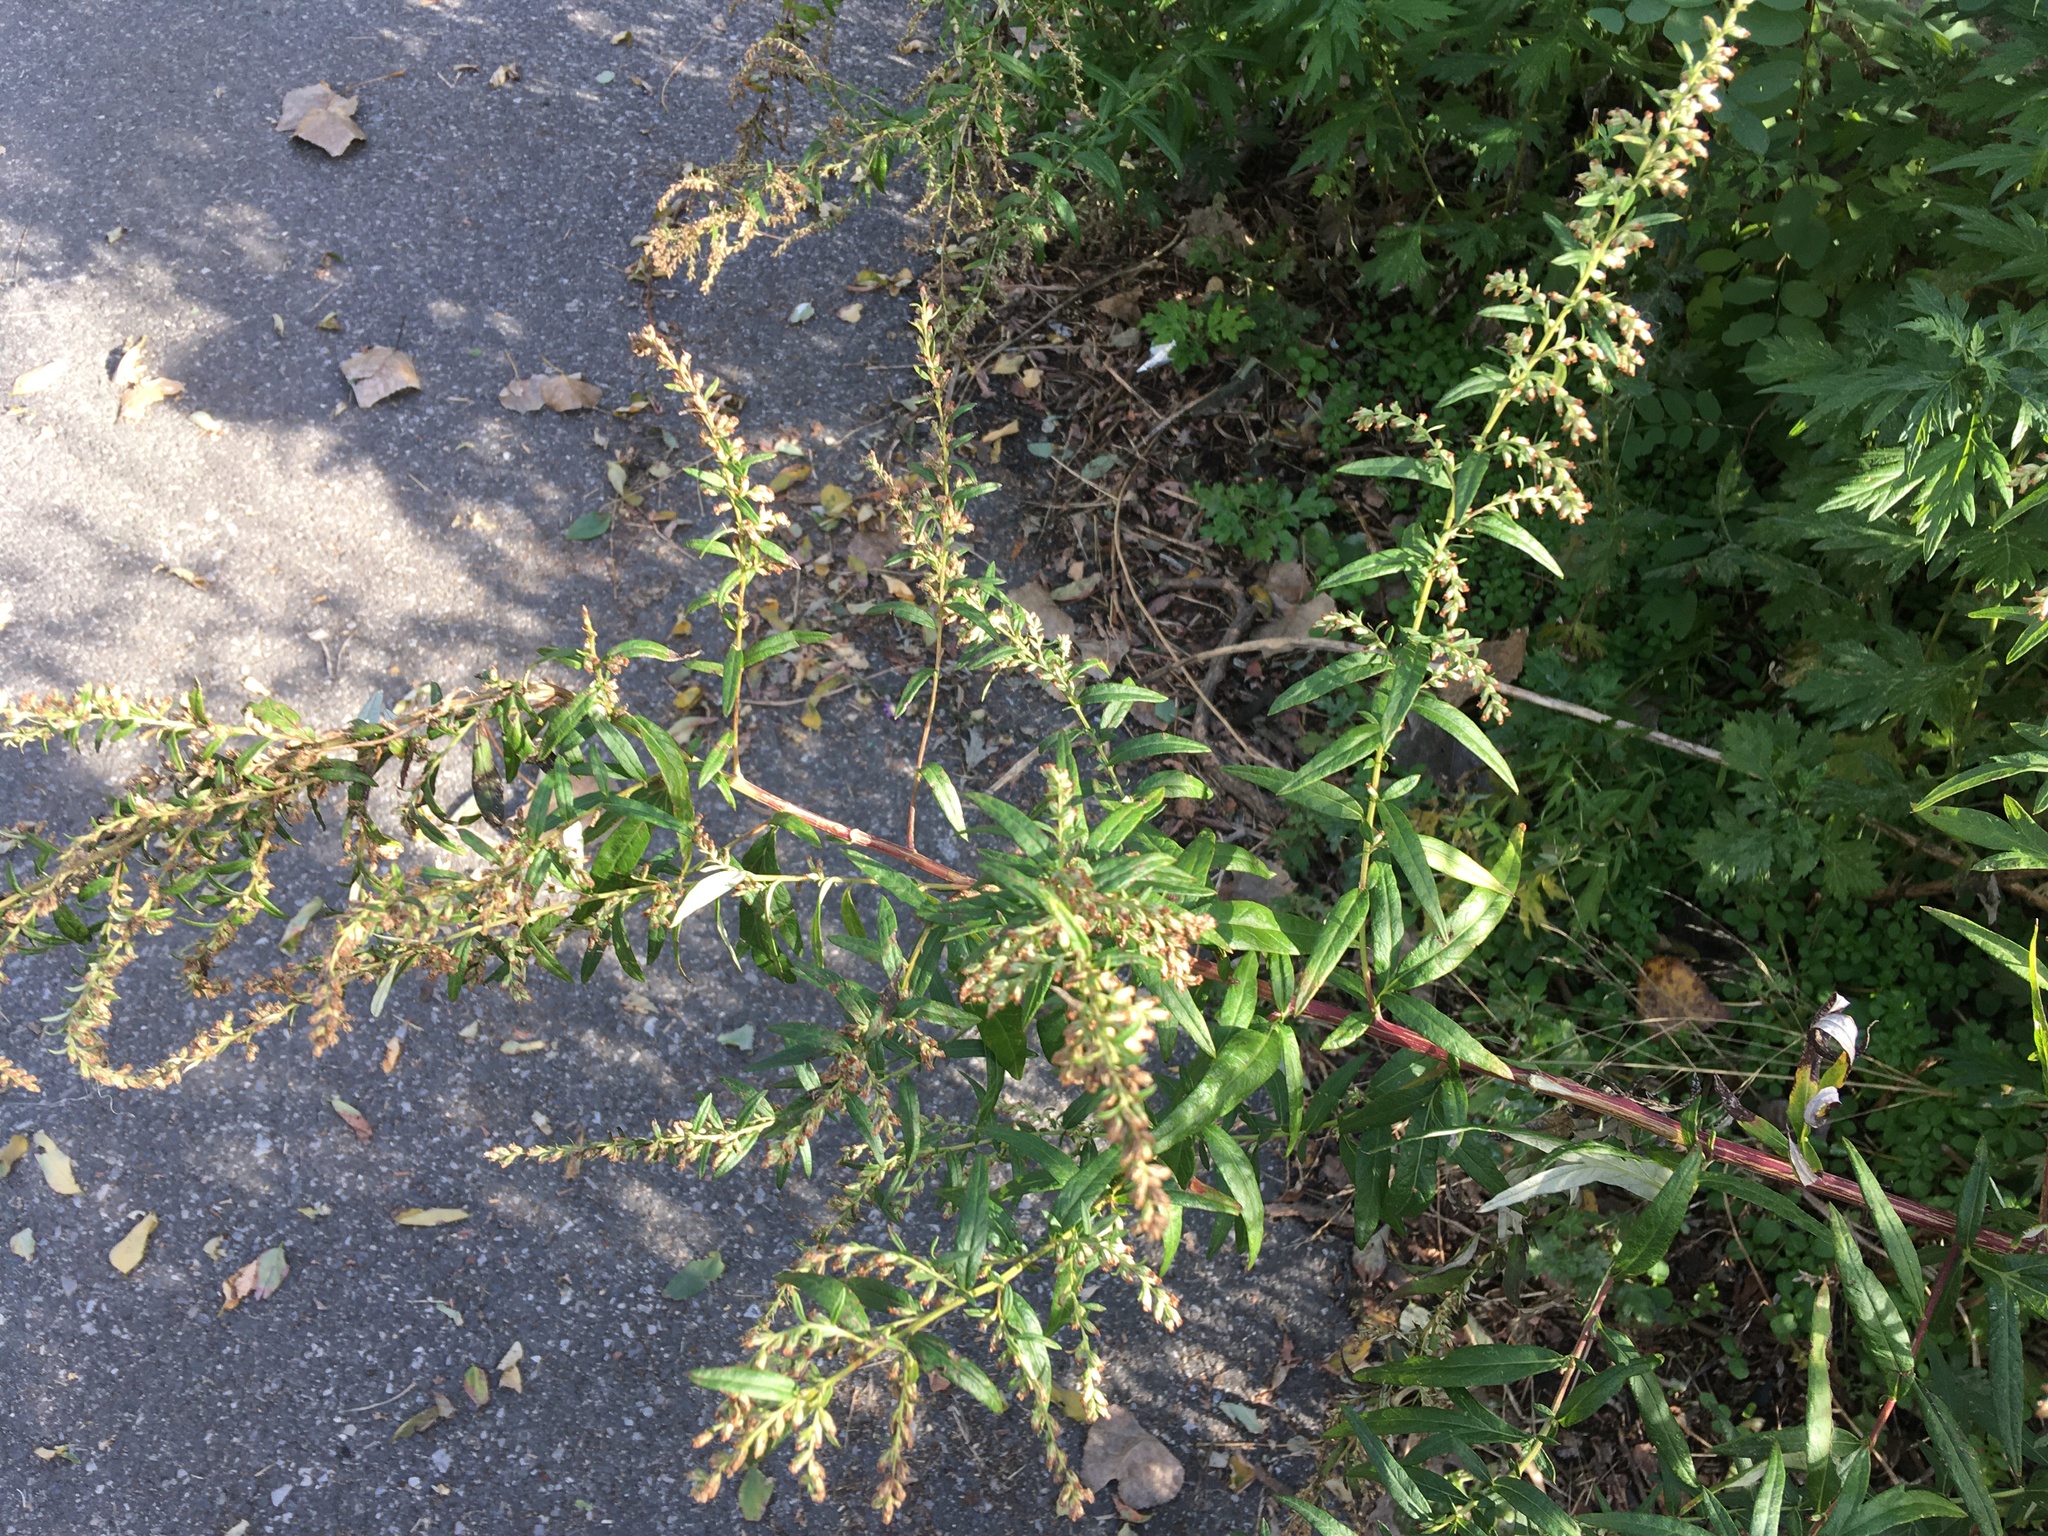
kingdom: Plantae
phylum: Tracheophyta
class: Magnoliopsida
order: Asterales
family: Asteraceae
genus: Artemisia
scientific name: Artemisia vulgaris
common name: Mugwort
